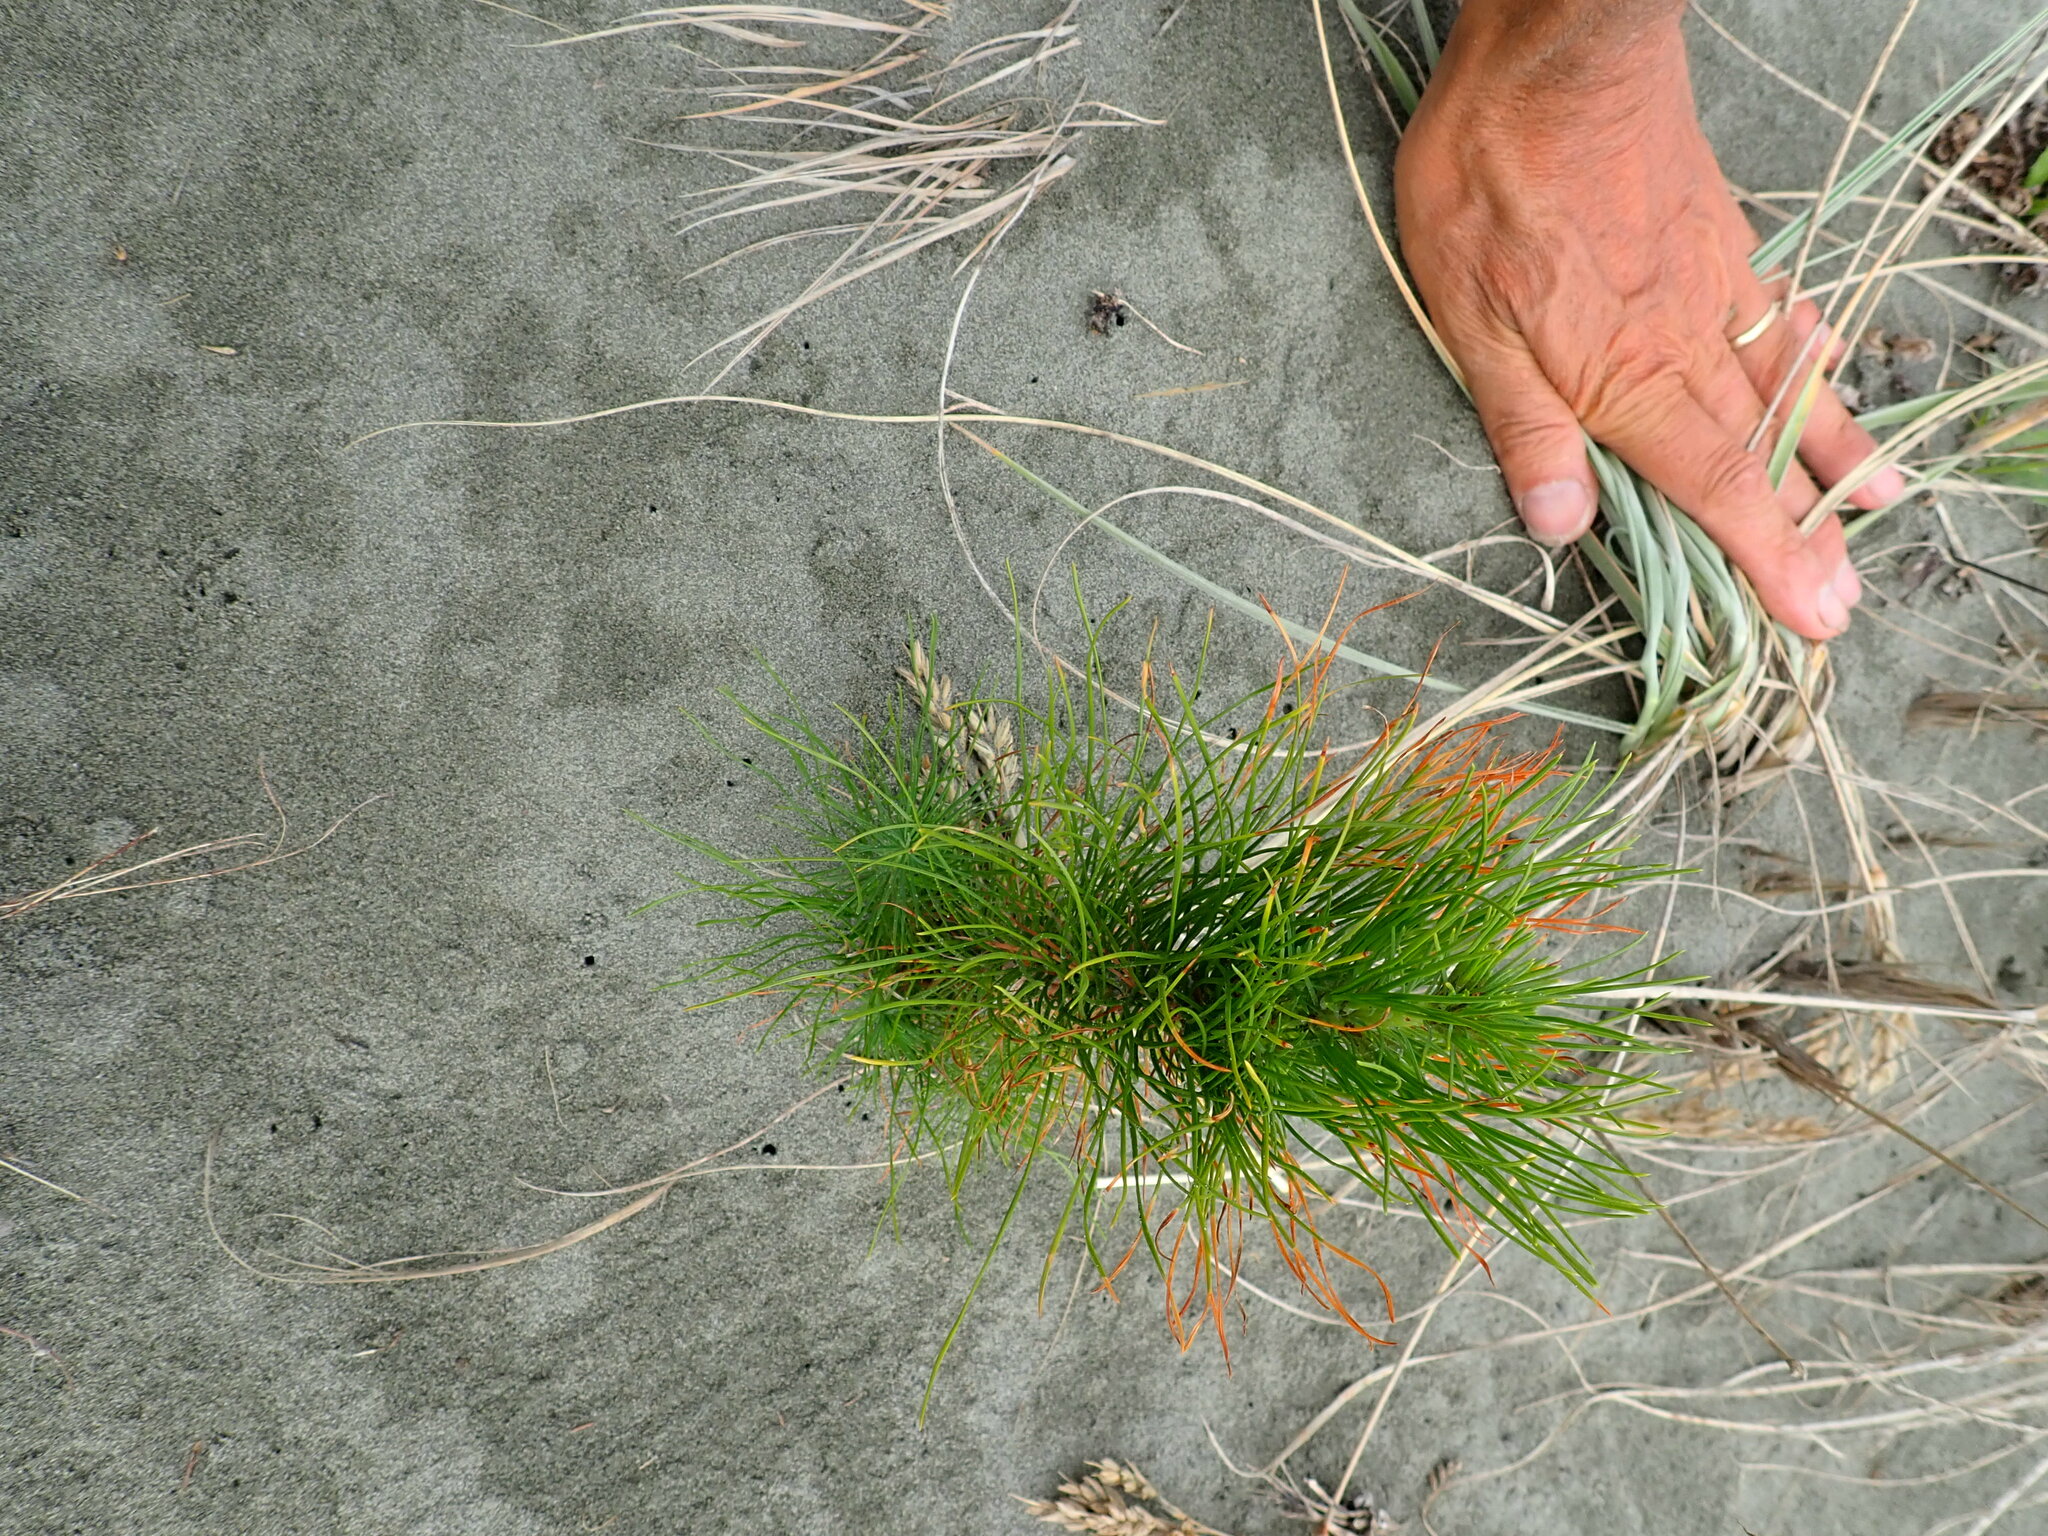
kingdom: Plantae
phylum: Tracheophyta
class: Pinopsida
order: Pinales
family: Pinaceae
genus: Pinus
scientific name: Pinus radiata
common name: Monterey pine
